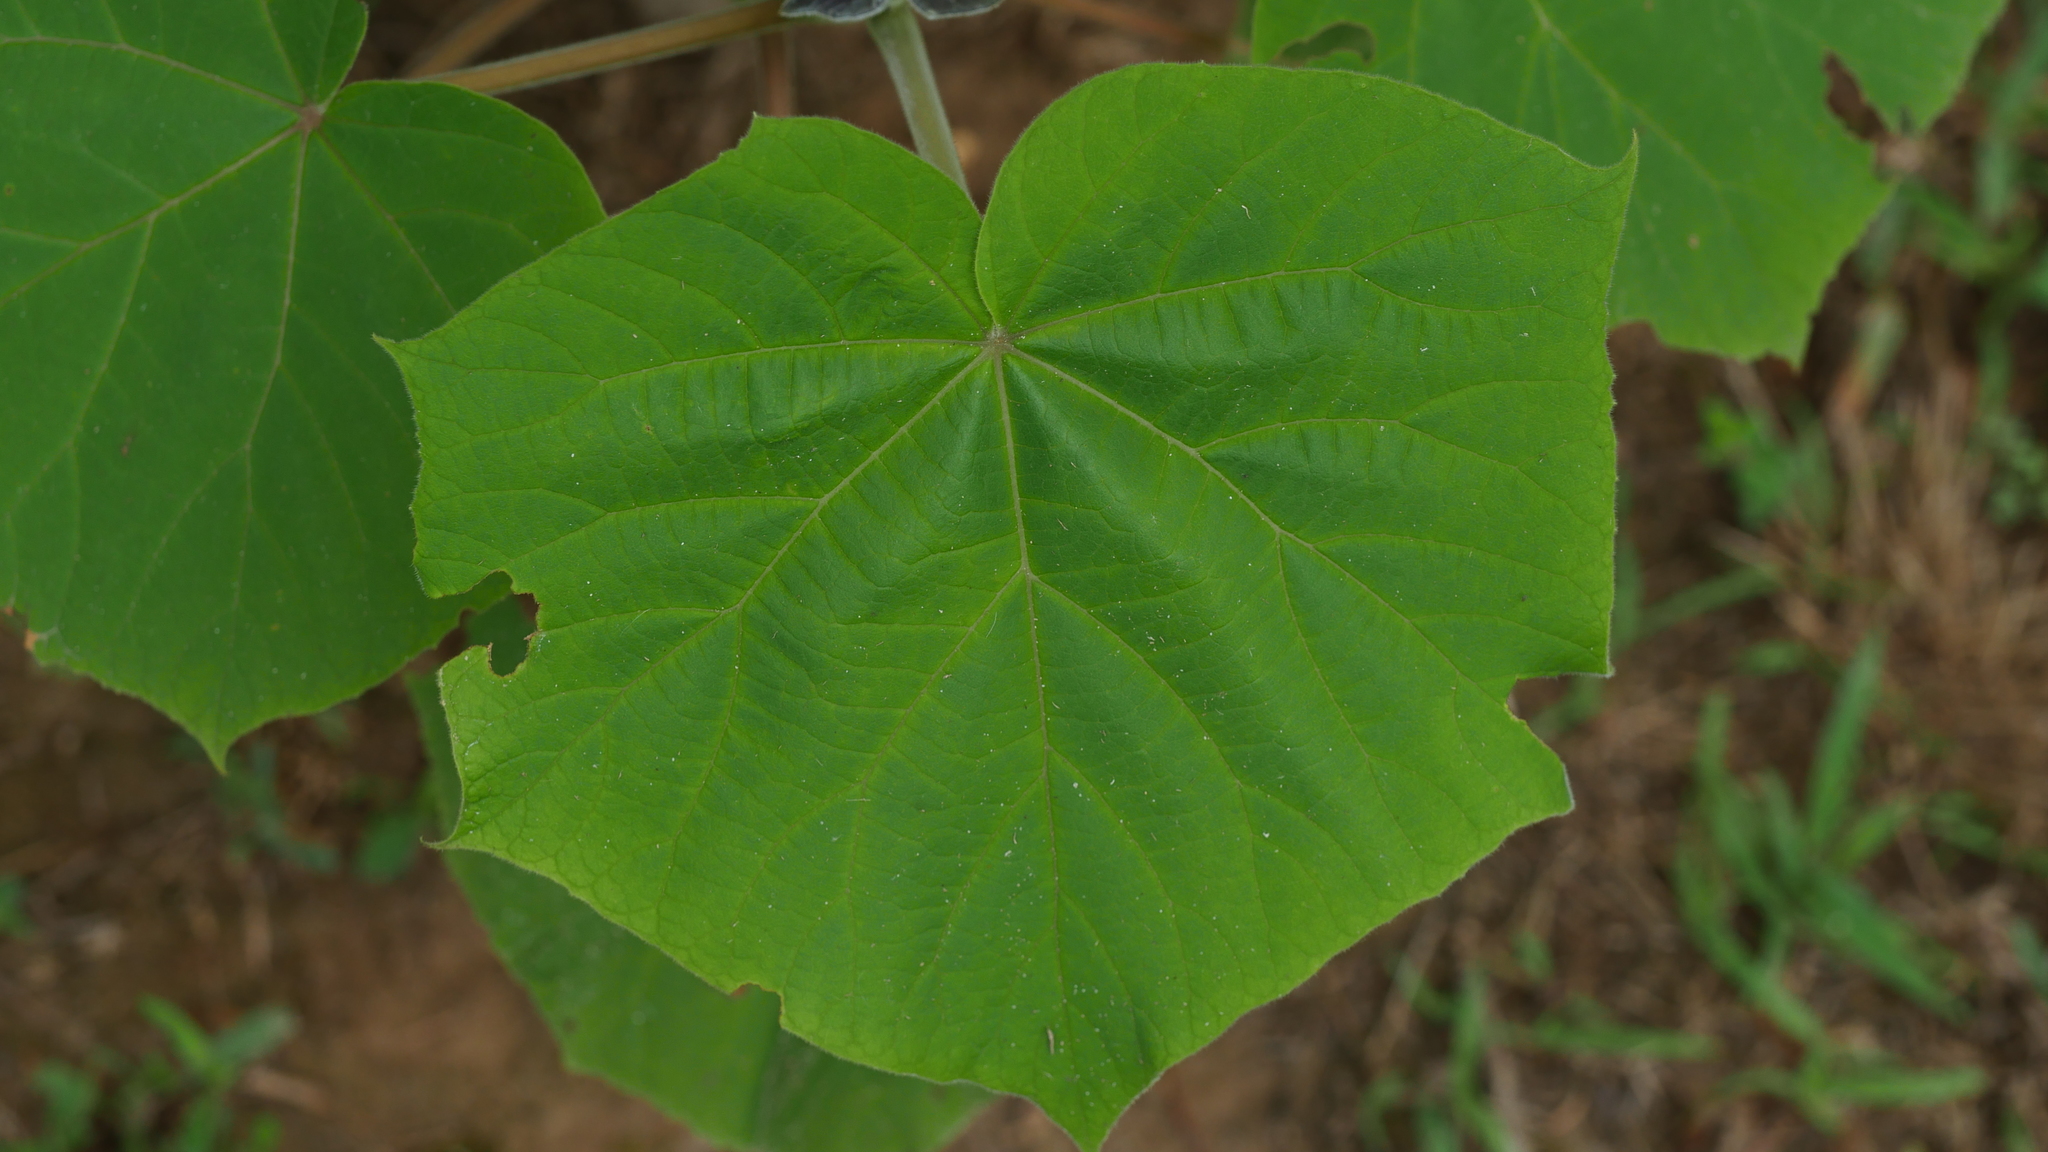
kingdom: Plantae
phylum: Tracheophyta
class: Magnoliopsida
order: Lamiales
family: Paulowniaceae
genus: Paulownia
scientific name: Paulownia tomentosa
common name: Foxglove-tree
